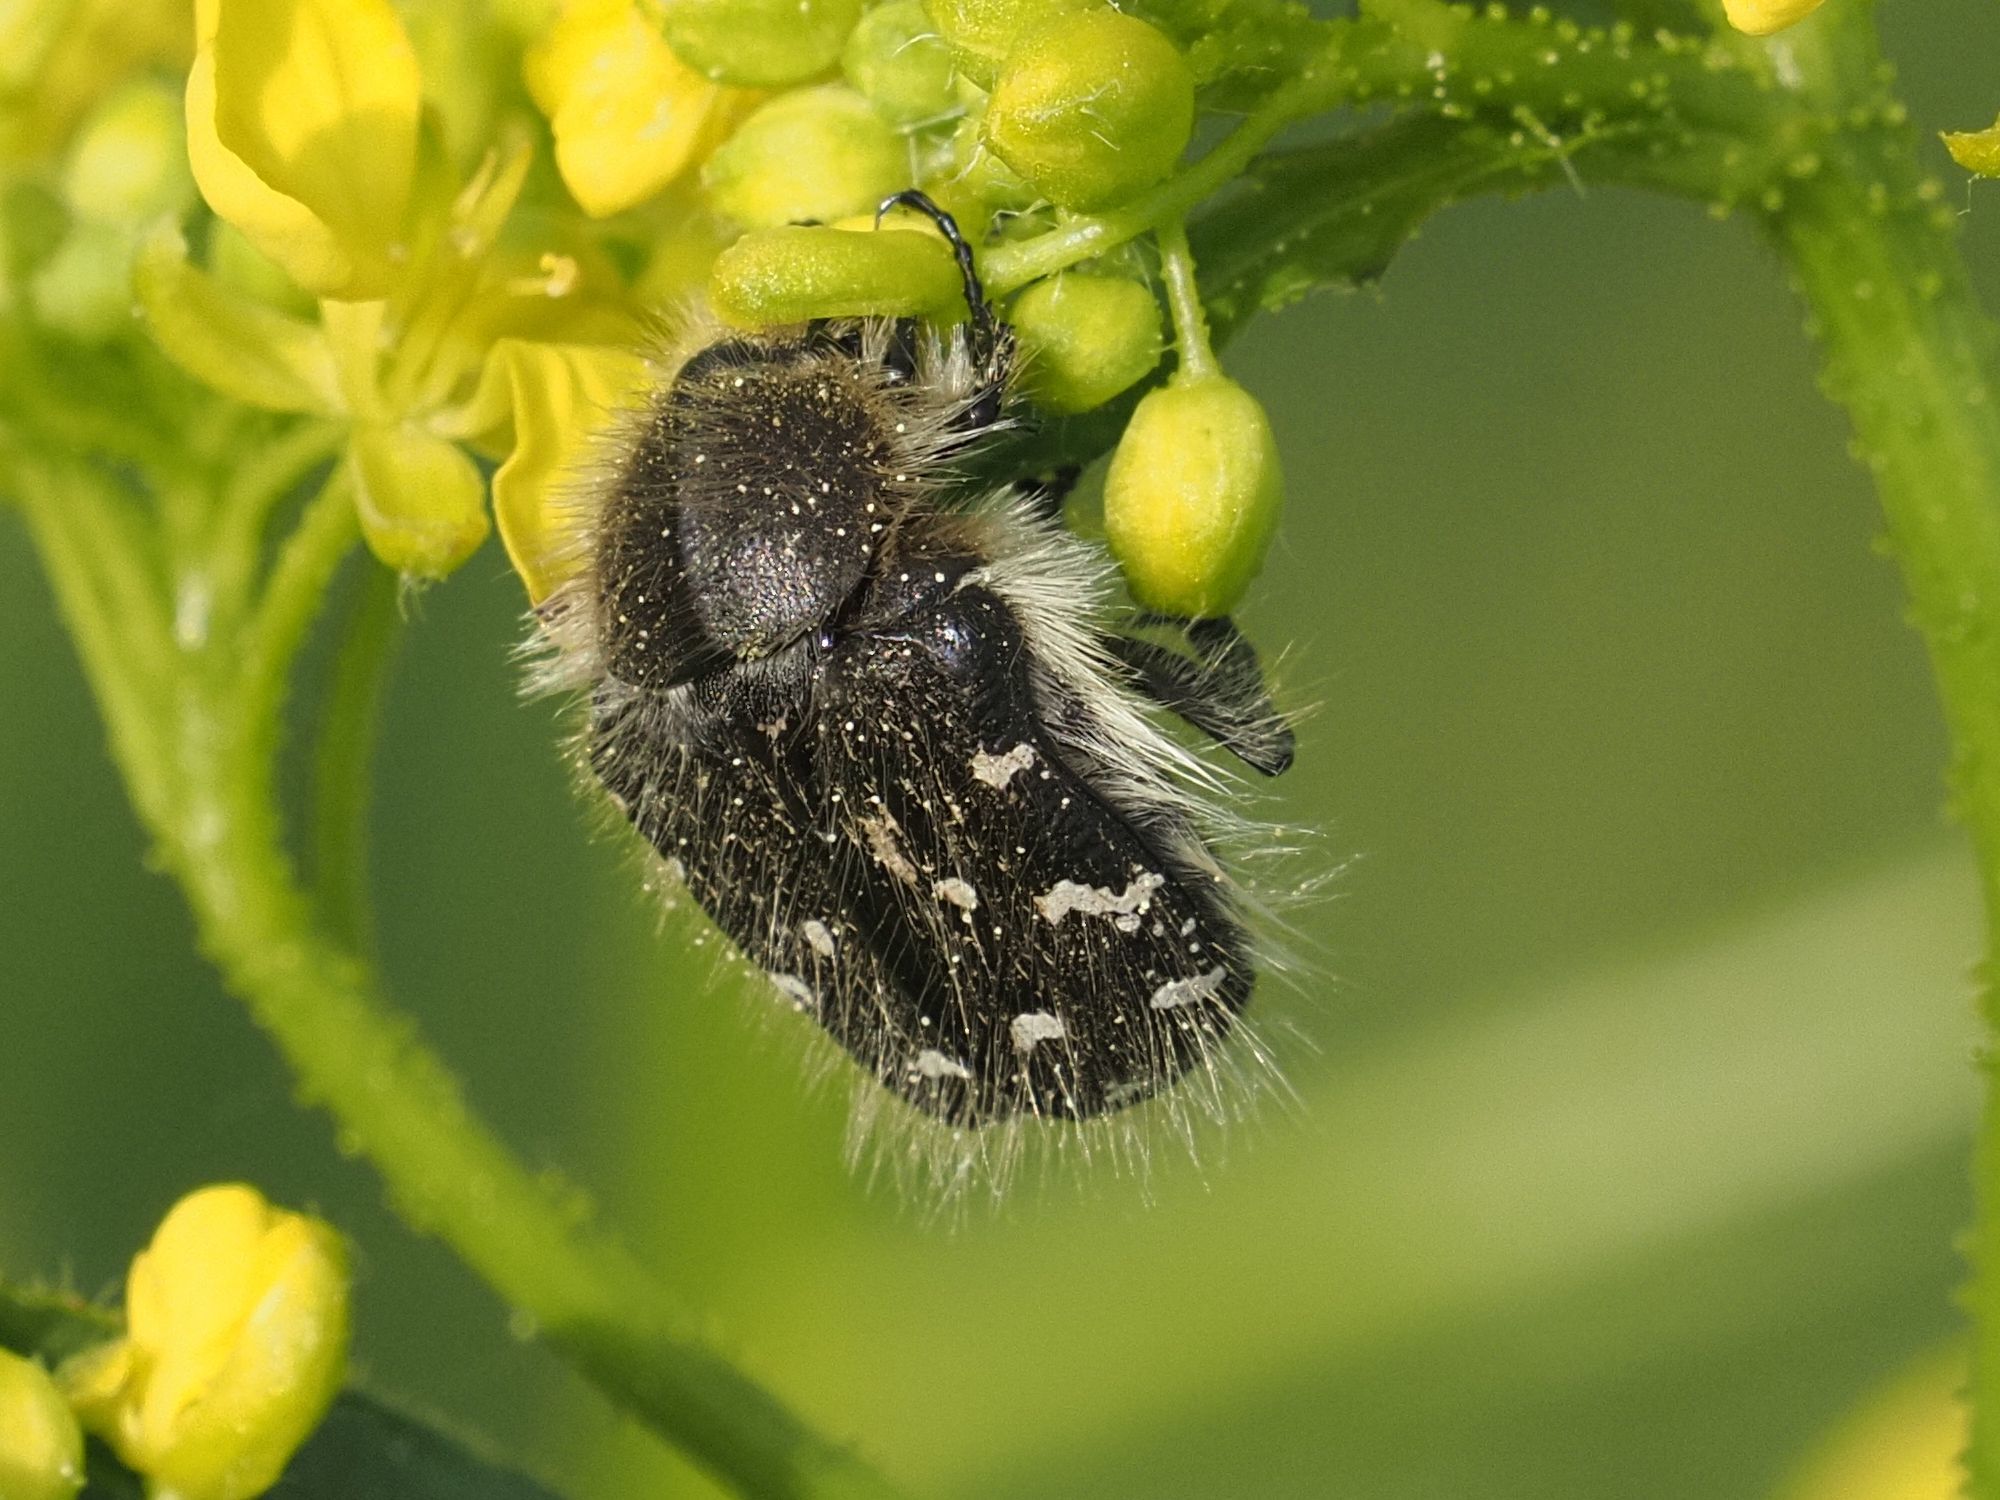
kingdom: Animalia
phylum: Arthropoda
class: Insecta
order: Coleoptera
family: Scarabaeidae
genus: Tropinota
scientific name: Tropinota hirta
